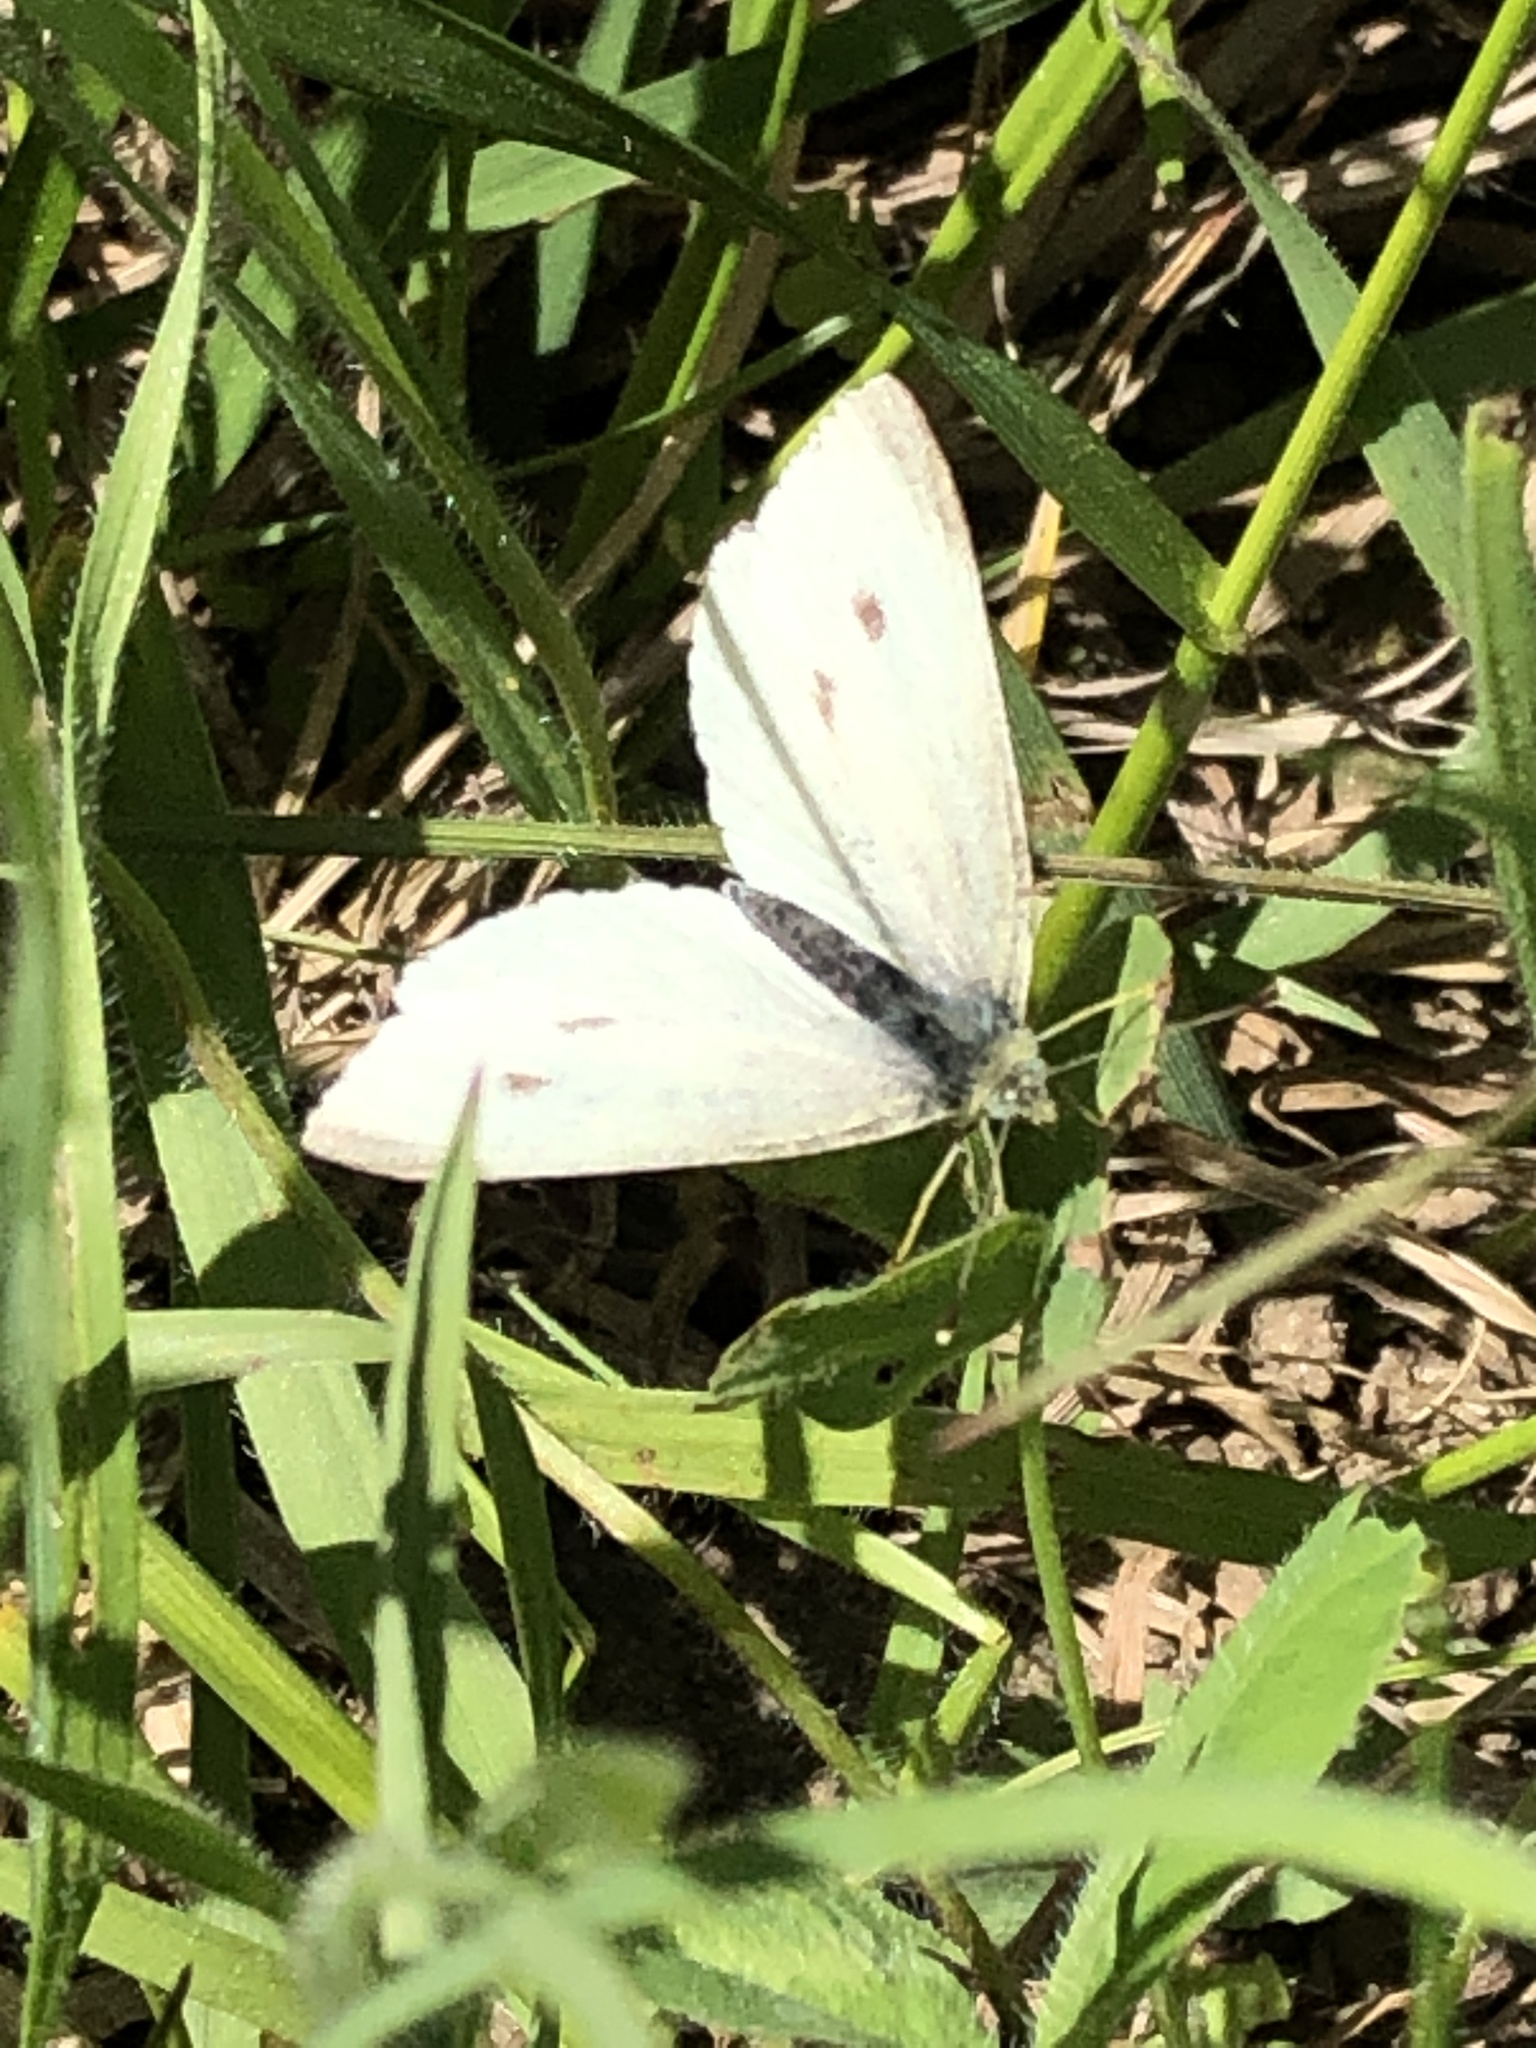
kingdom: Animalia
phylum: Arthropoda
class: Insecta
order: Lepidoptera
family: Pieridae
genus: Pieris
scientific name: Pieris rapae
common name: Small white
